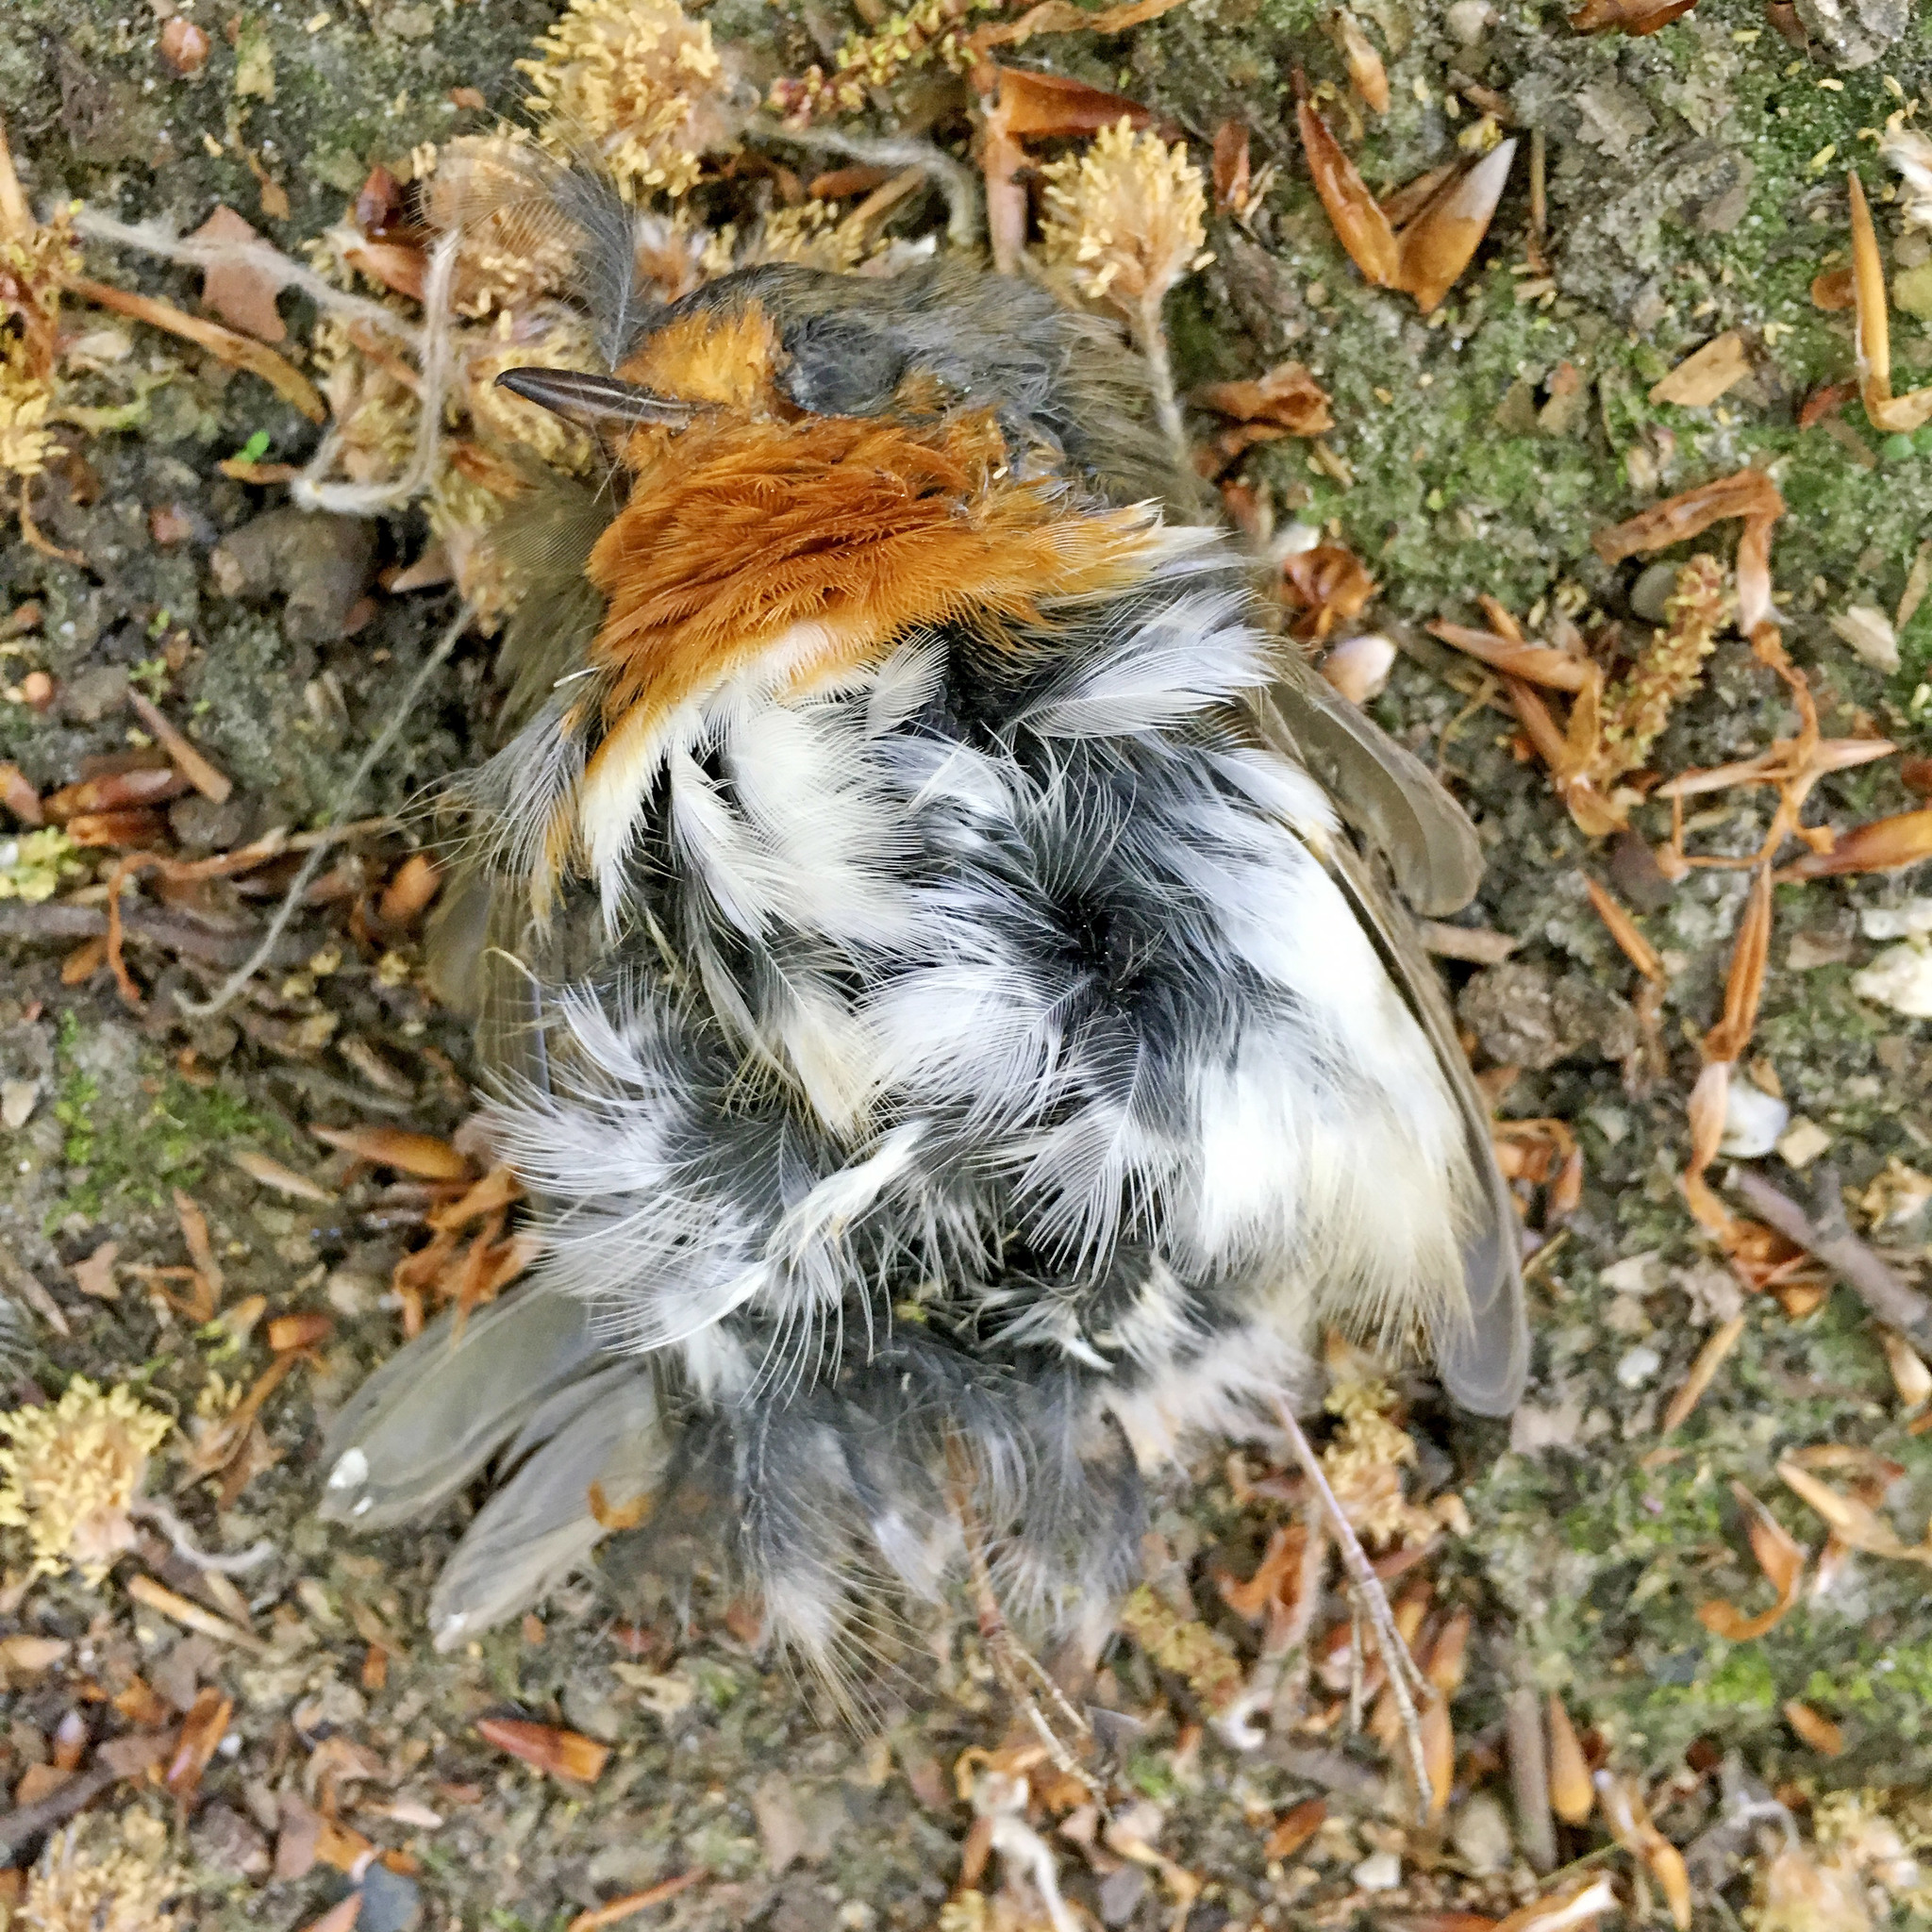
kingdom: Animalia
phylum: Chordata
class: Aves
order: Passeriformes
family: Muscicapidae
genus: Erithacus
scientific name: Erithacus rubecula
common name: European robin
